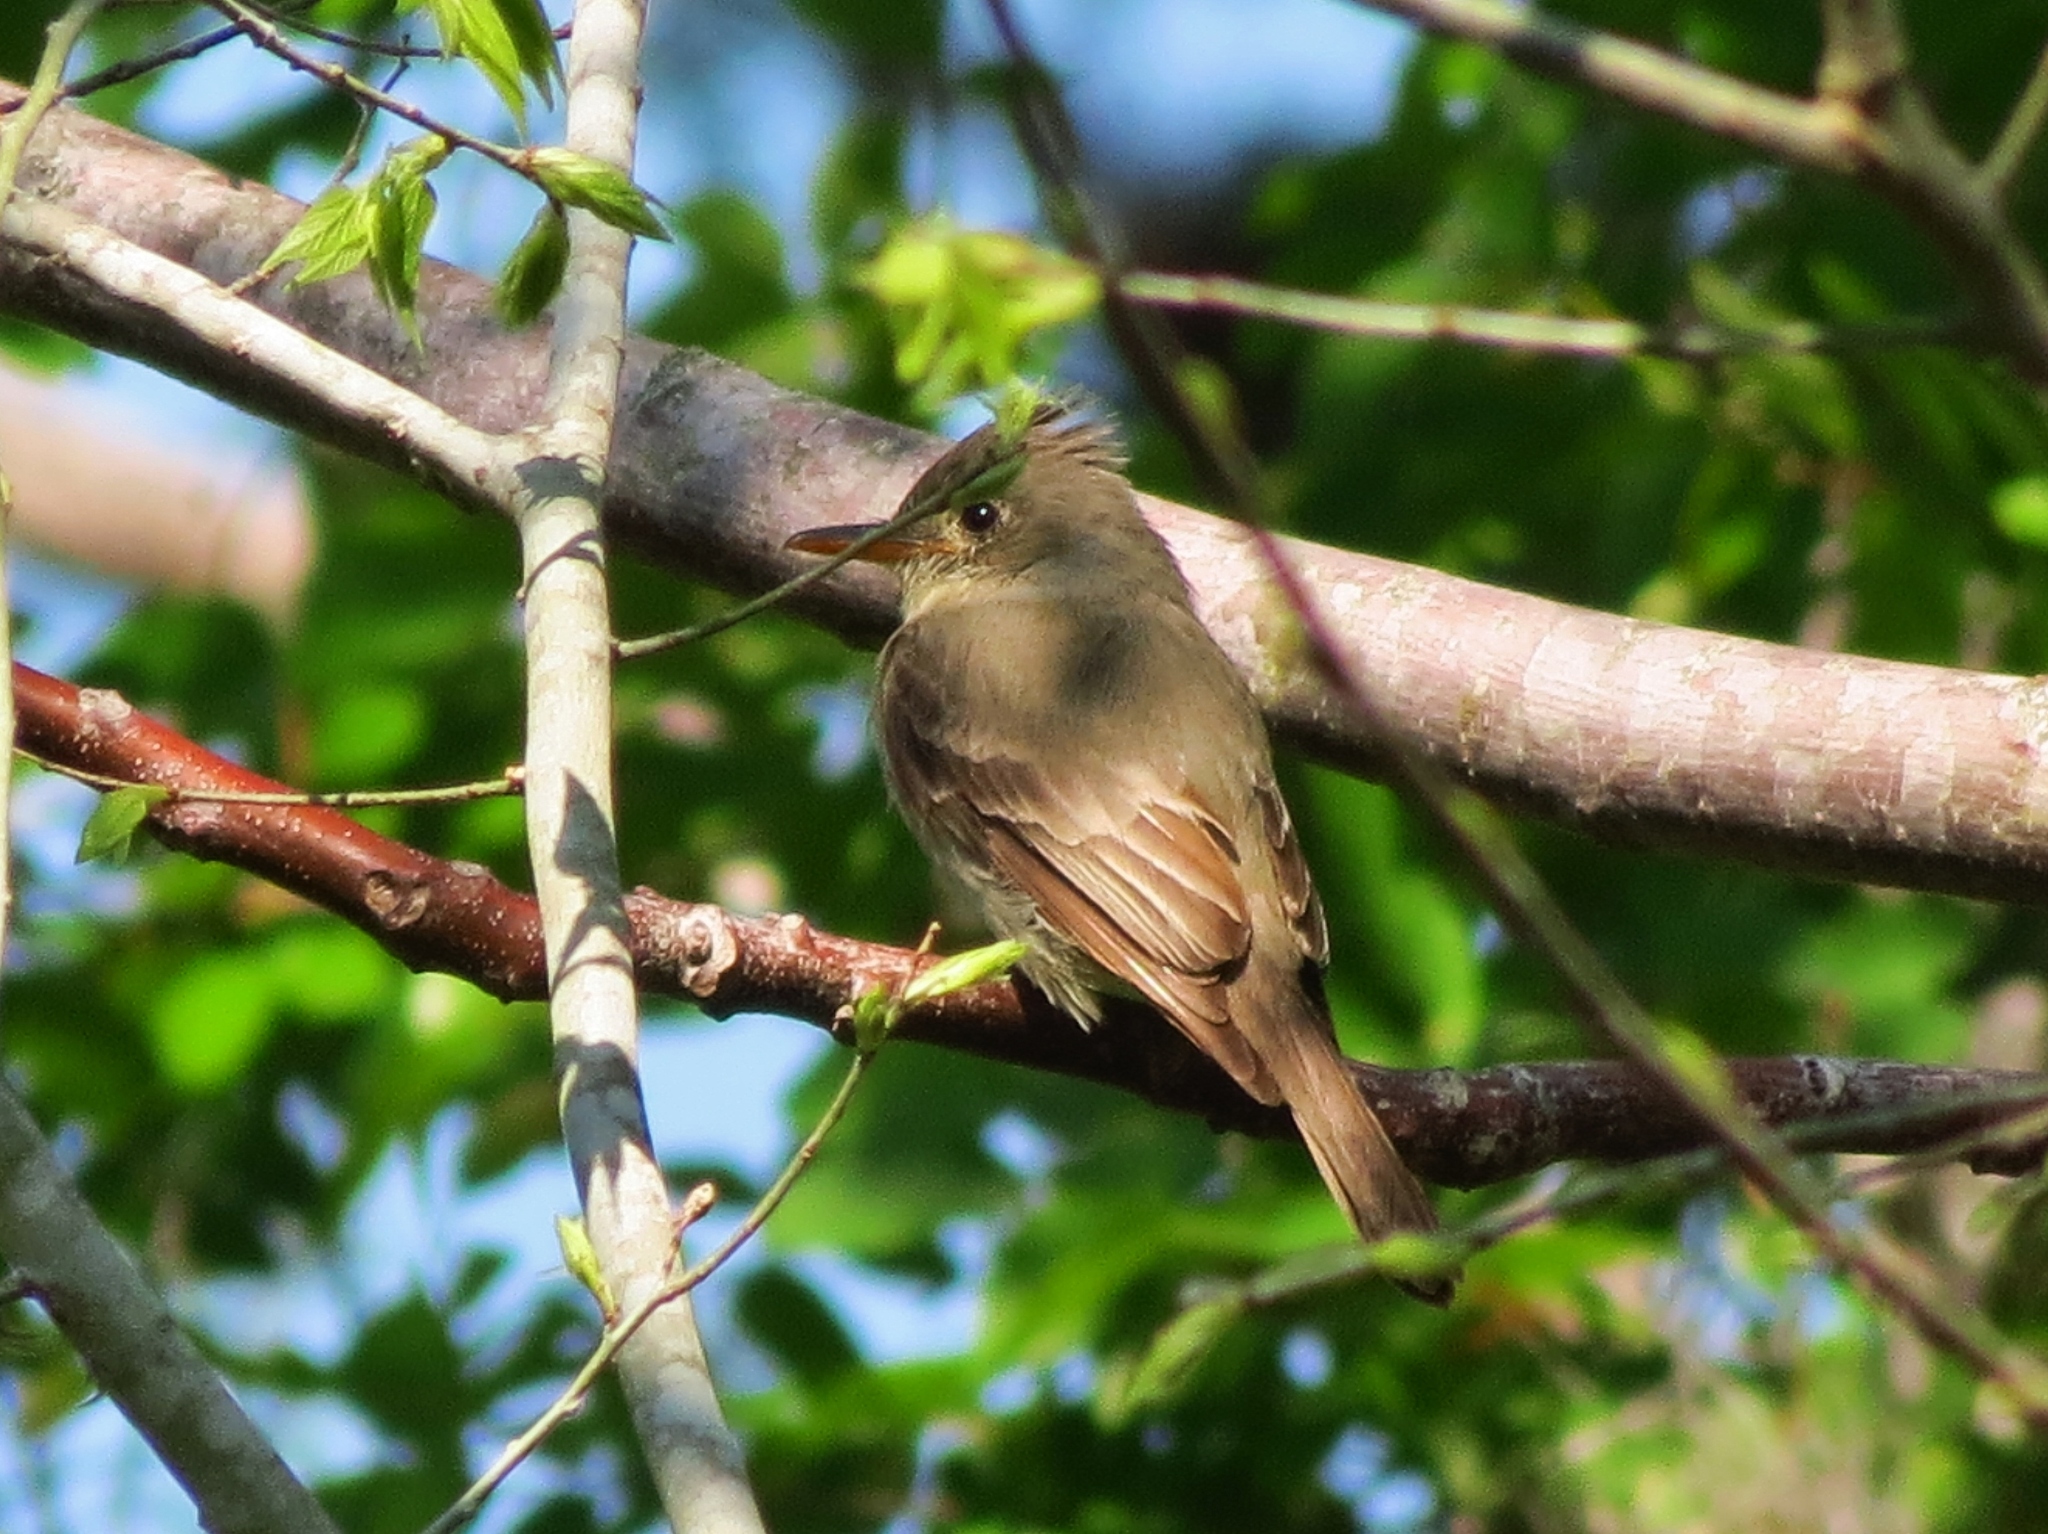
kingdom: Animalia
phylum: Chordata
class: Aves
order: Passeriformes
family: Tyrannidae
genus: Contopus
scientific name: Contopus pertinax
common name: Greater pewee
